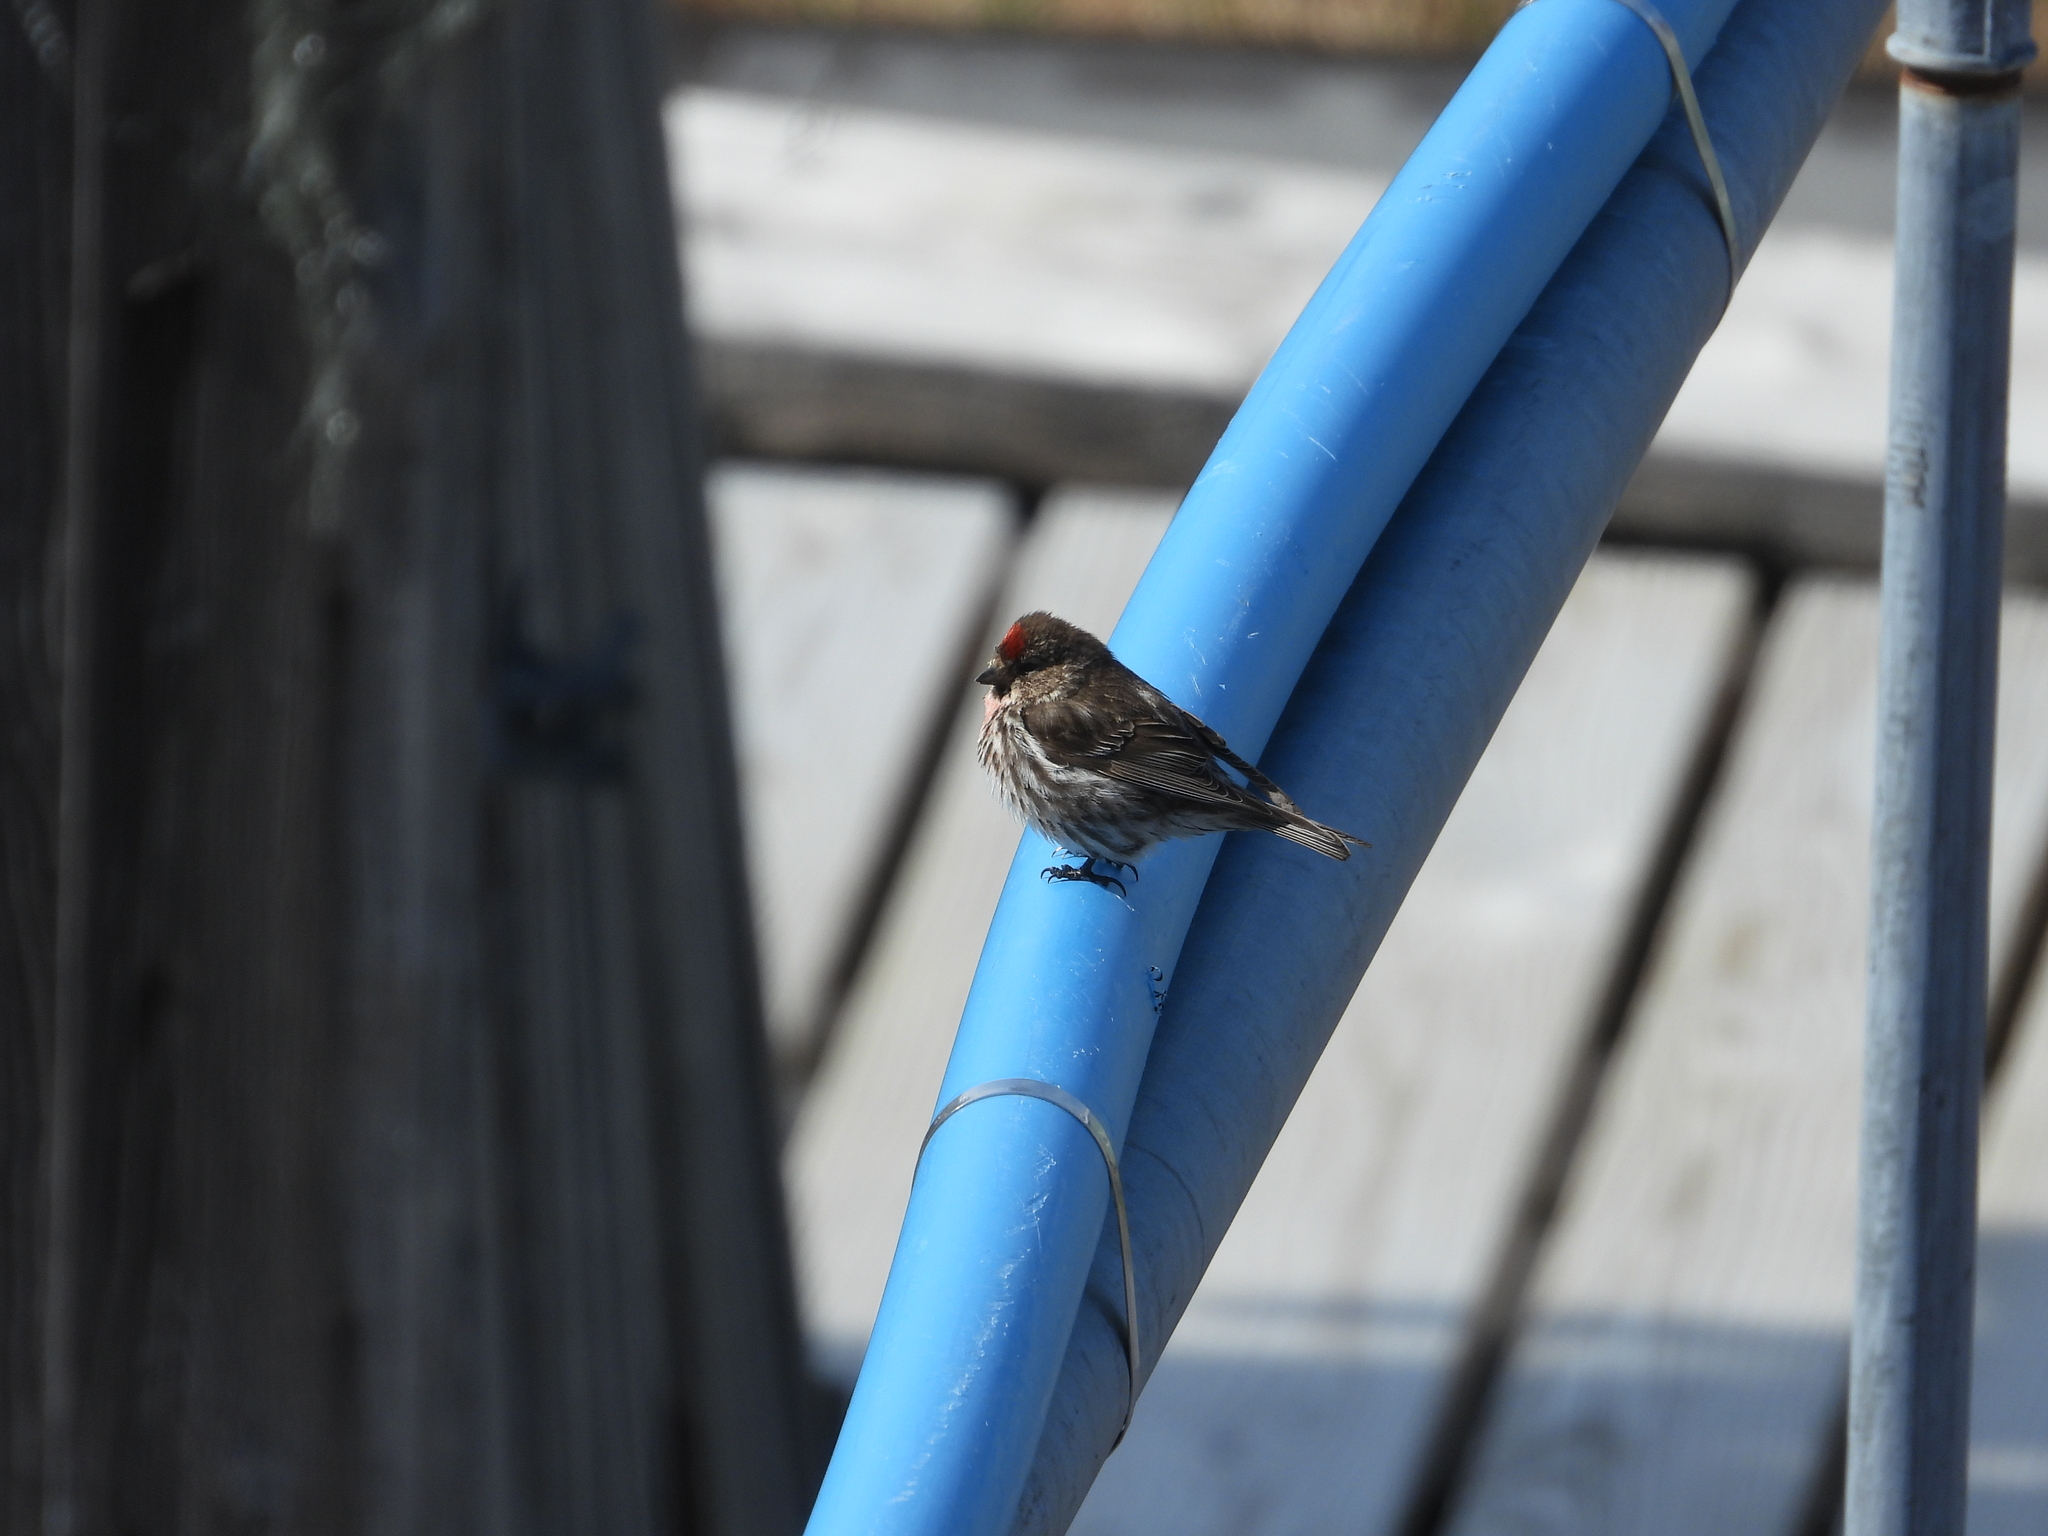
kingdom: Animalia
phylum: Chordata
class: Aves
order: Passeriformes
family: Fringillidae
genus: Acanthis
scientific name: Acanthis flammea
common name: Common redpoll
